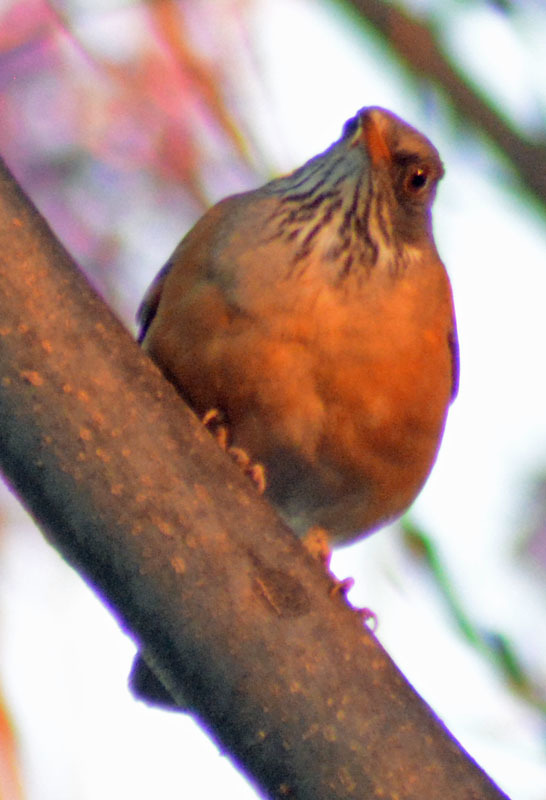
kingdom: Animalia
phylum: Chordata
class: Aves
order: Passeriformes
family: Turdidae
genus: Turdus
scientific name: Turdus rufopalliatus
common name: Rufous-backed robin
